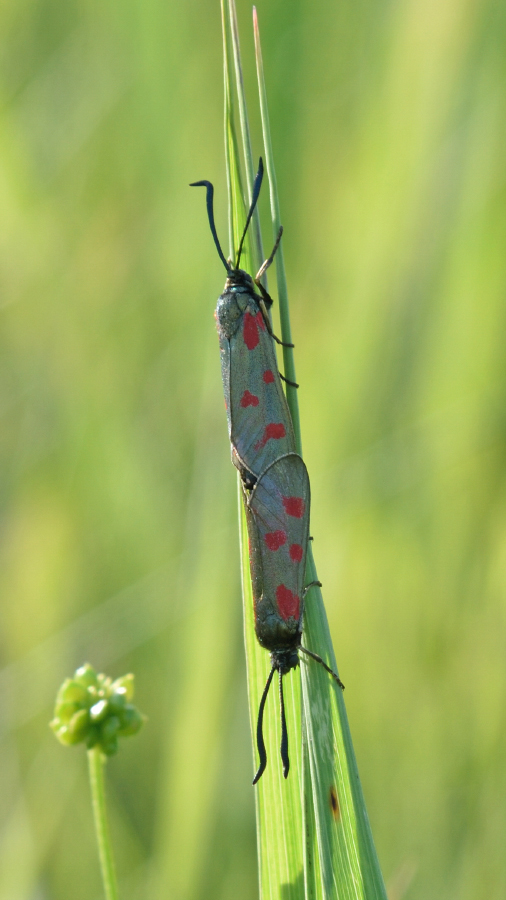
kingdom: Animalia
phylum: Arthropoda
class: Insecta
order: Lepidoptera
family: Zygaenidae
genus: Zygaena
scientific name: Zygaena centaureae
